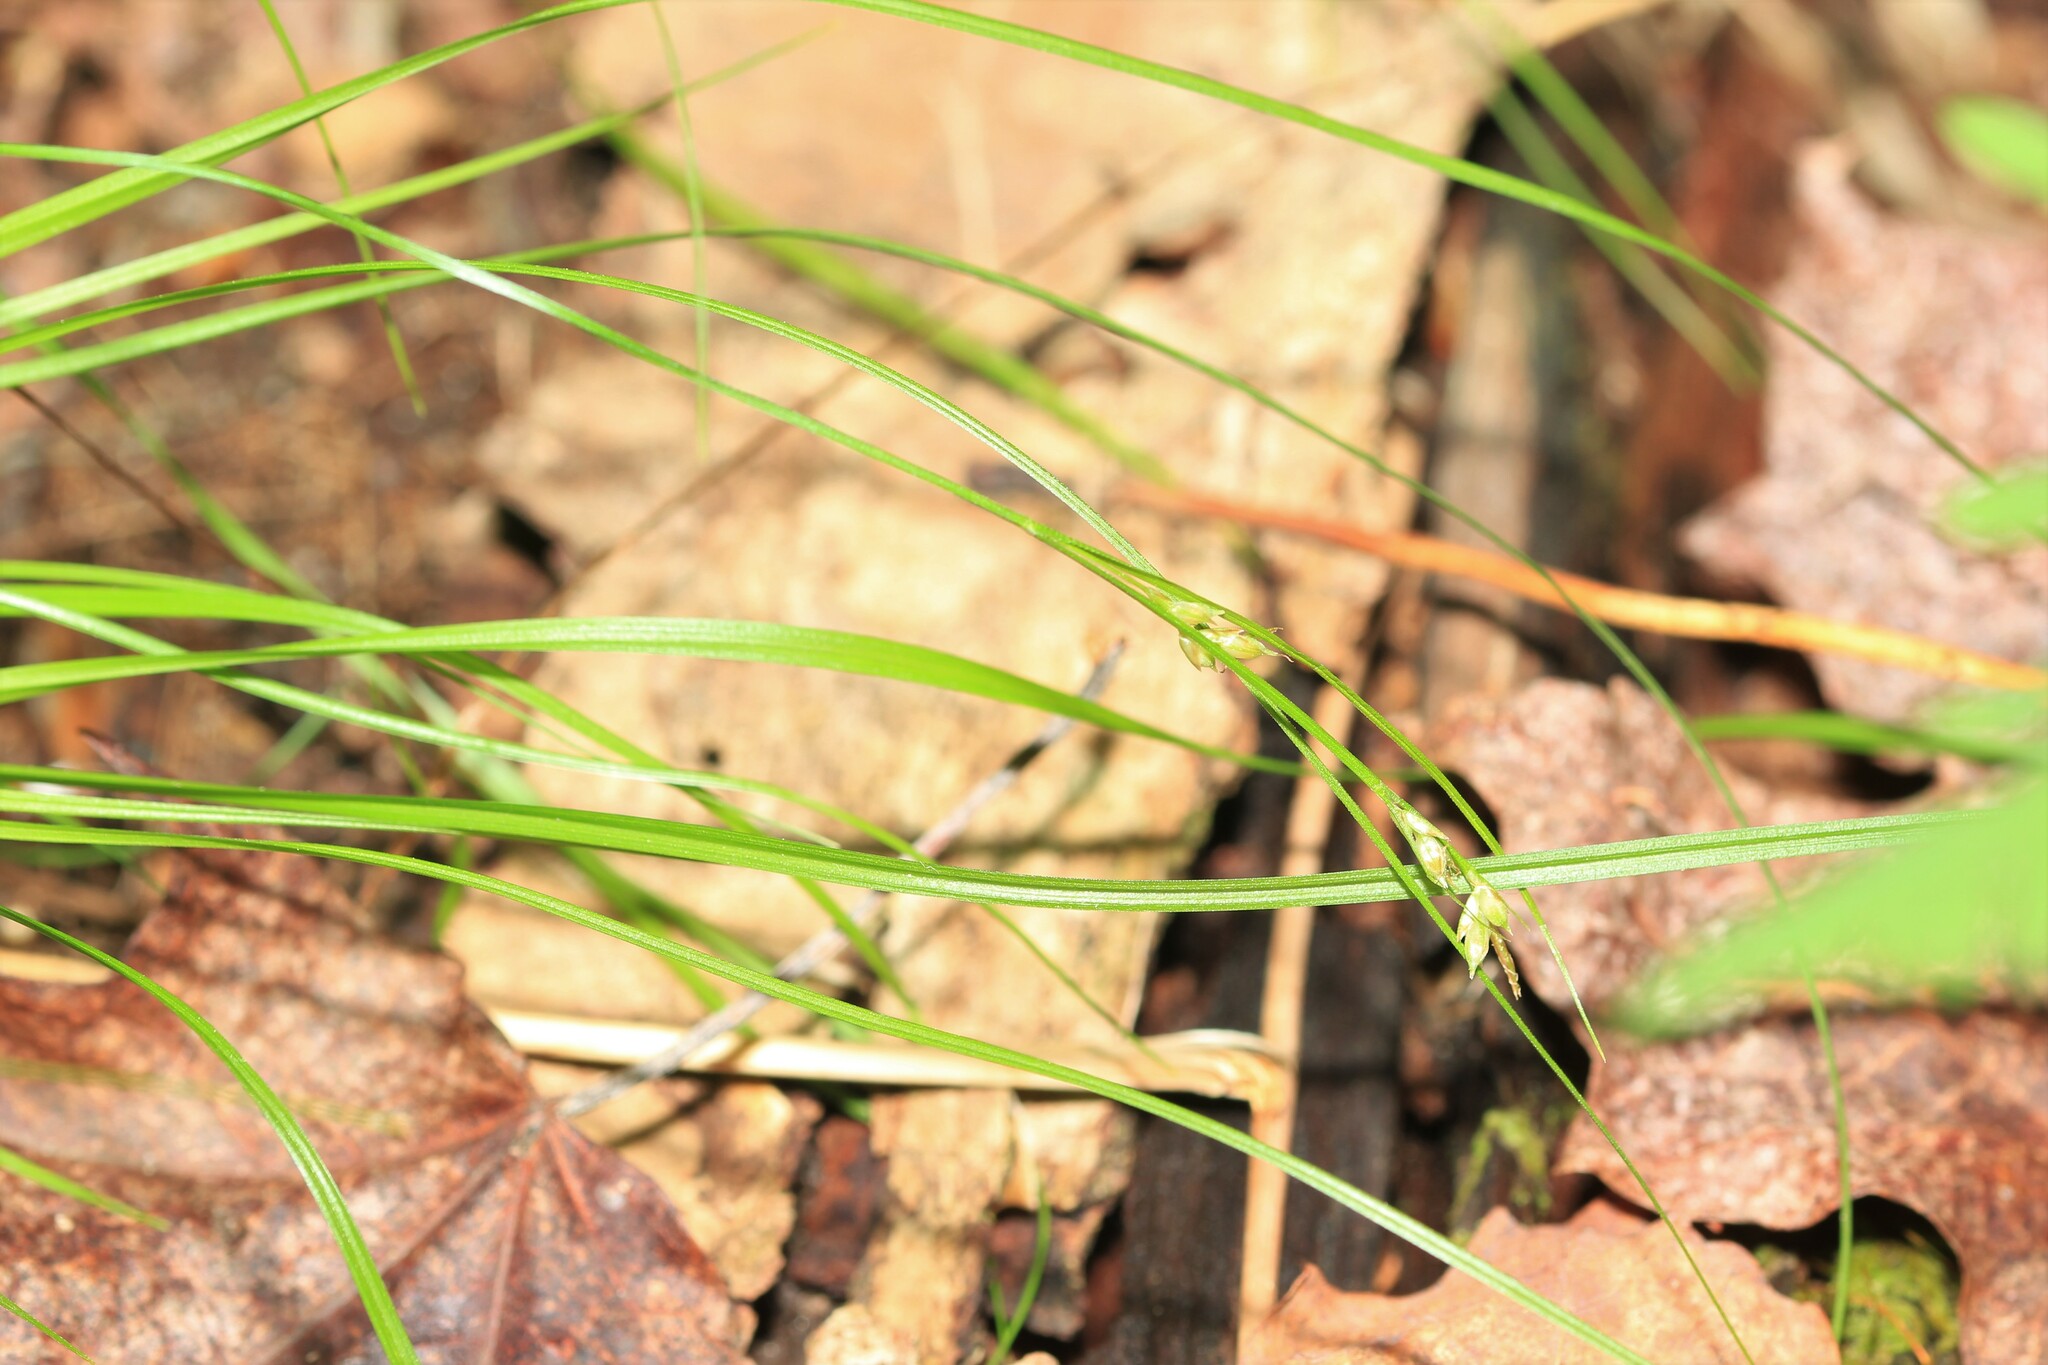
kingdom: Plantae
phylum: Tracheophyta
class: Liliopsida
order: Poales
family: Cyperaceae
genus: Carex
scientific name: Carex novae-angliae
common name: New england sedge
